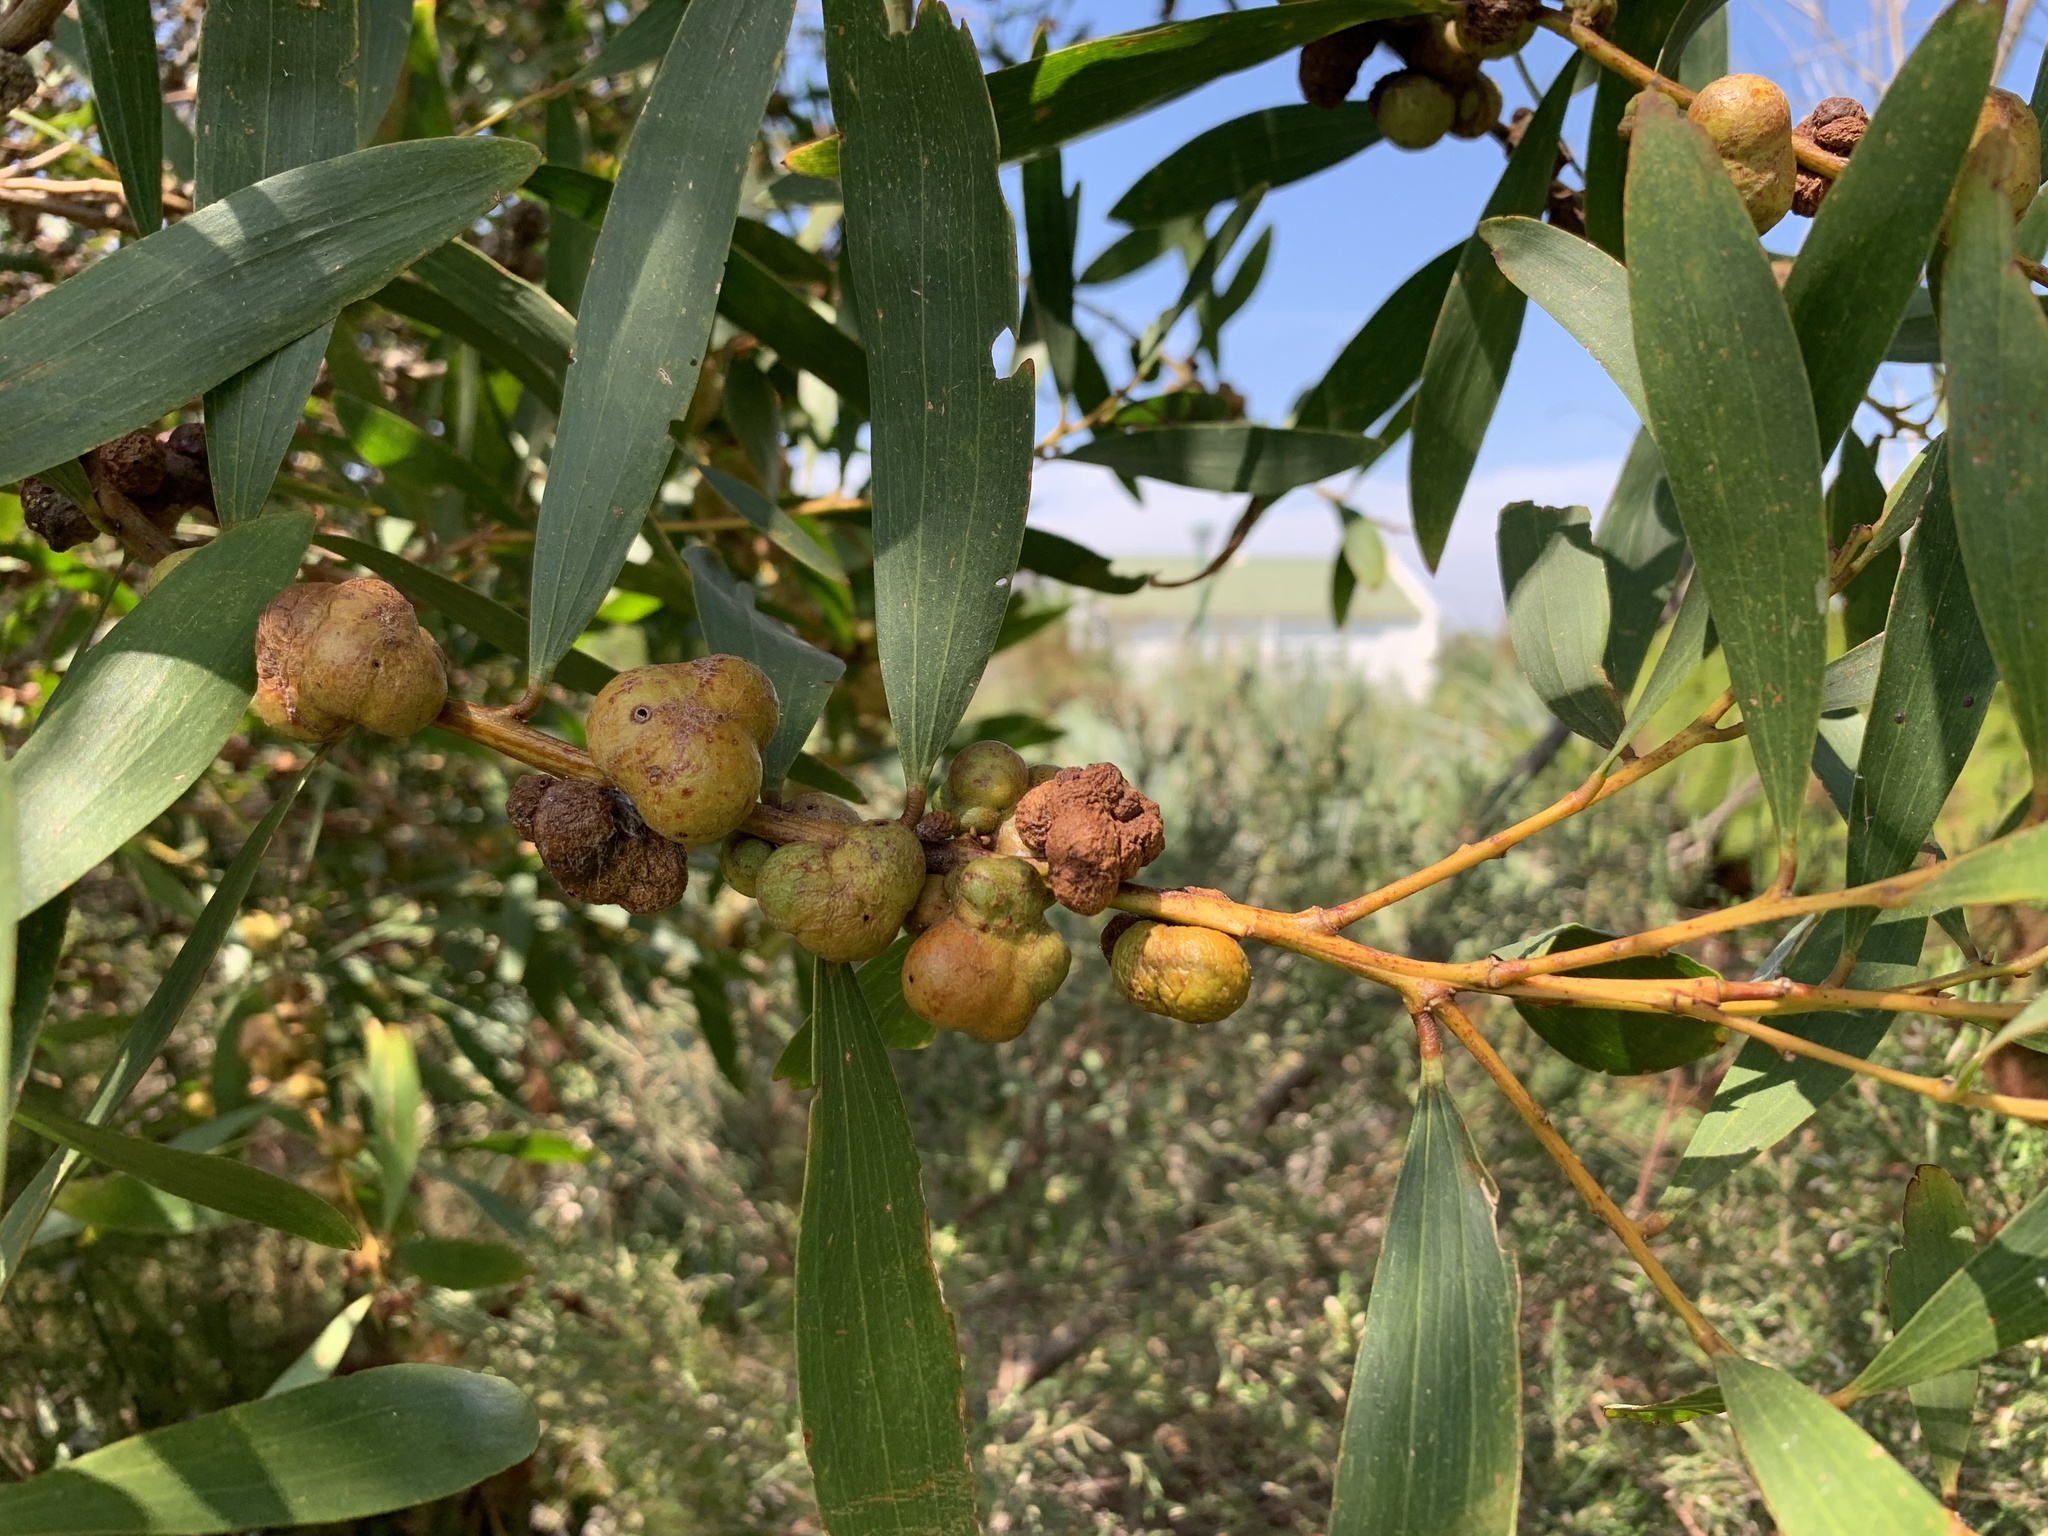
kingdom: Plantae
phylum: Tracheophyta
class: Magnoliopsida
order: Fabales
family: Fabaceae
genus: Acacia
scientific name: Acacia longifolia
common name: Sydney golden wattle
